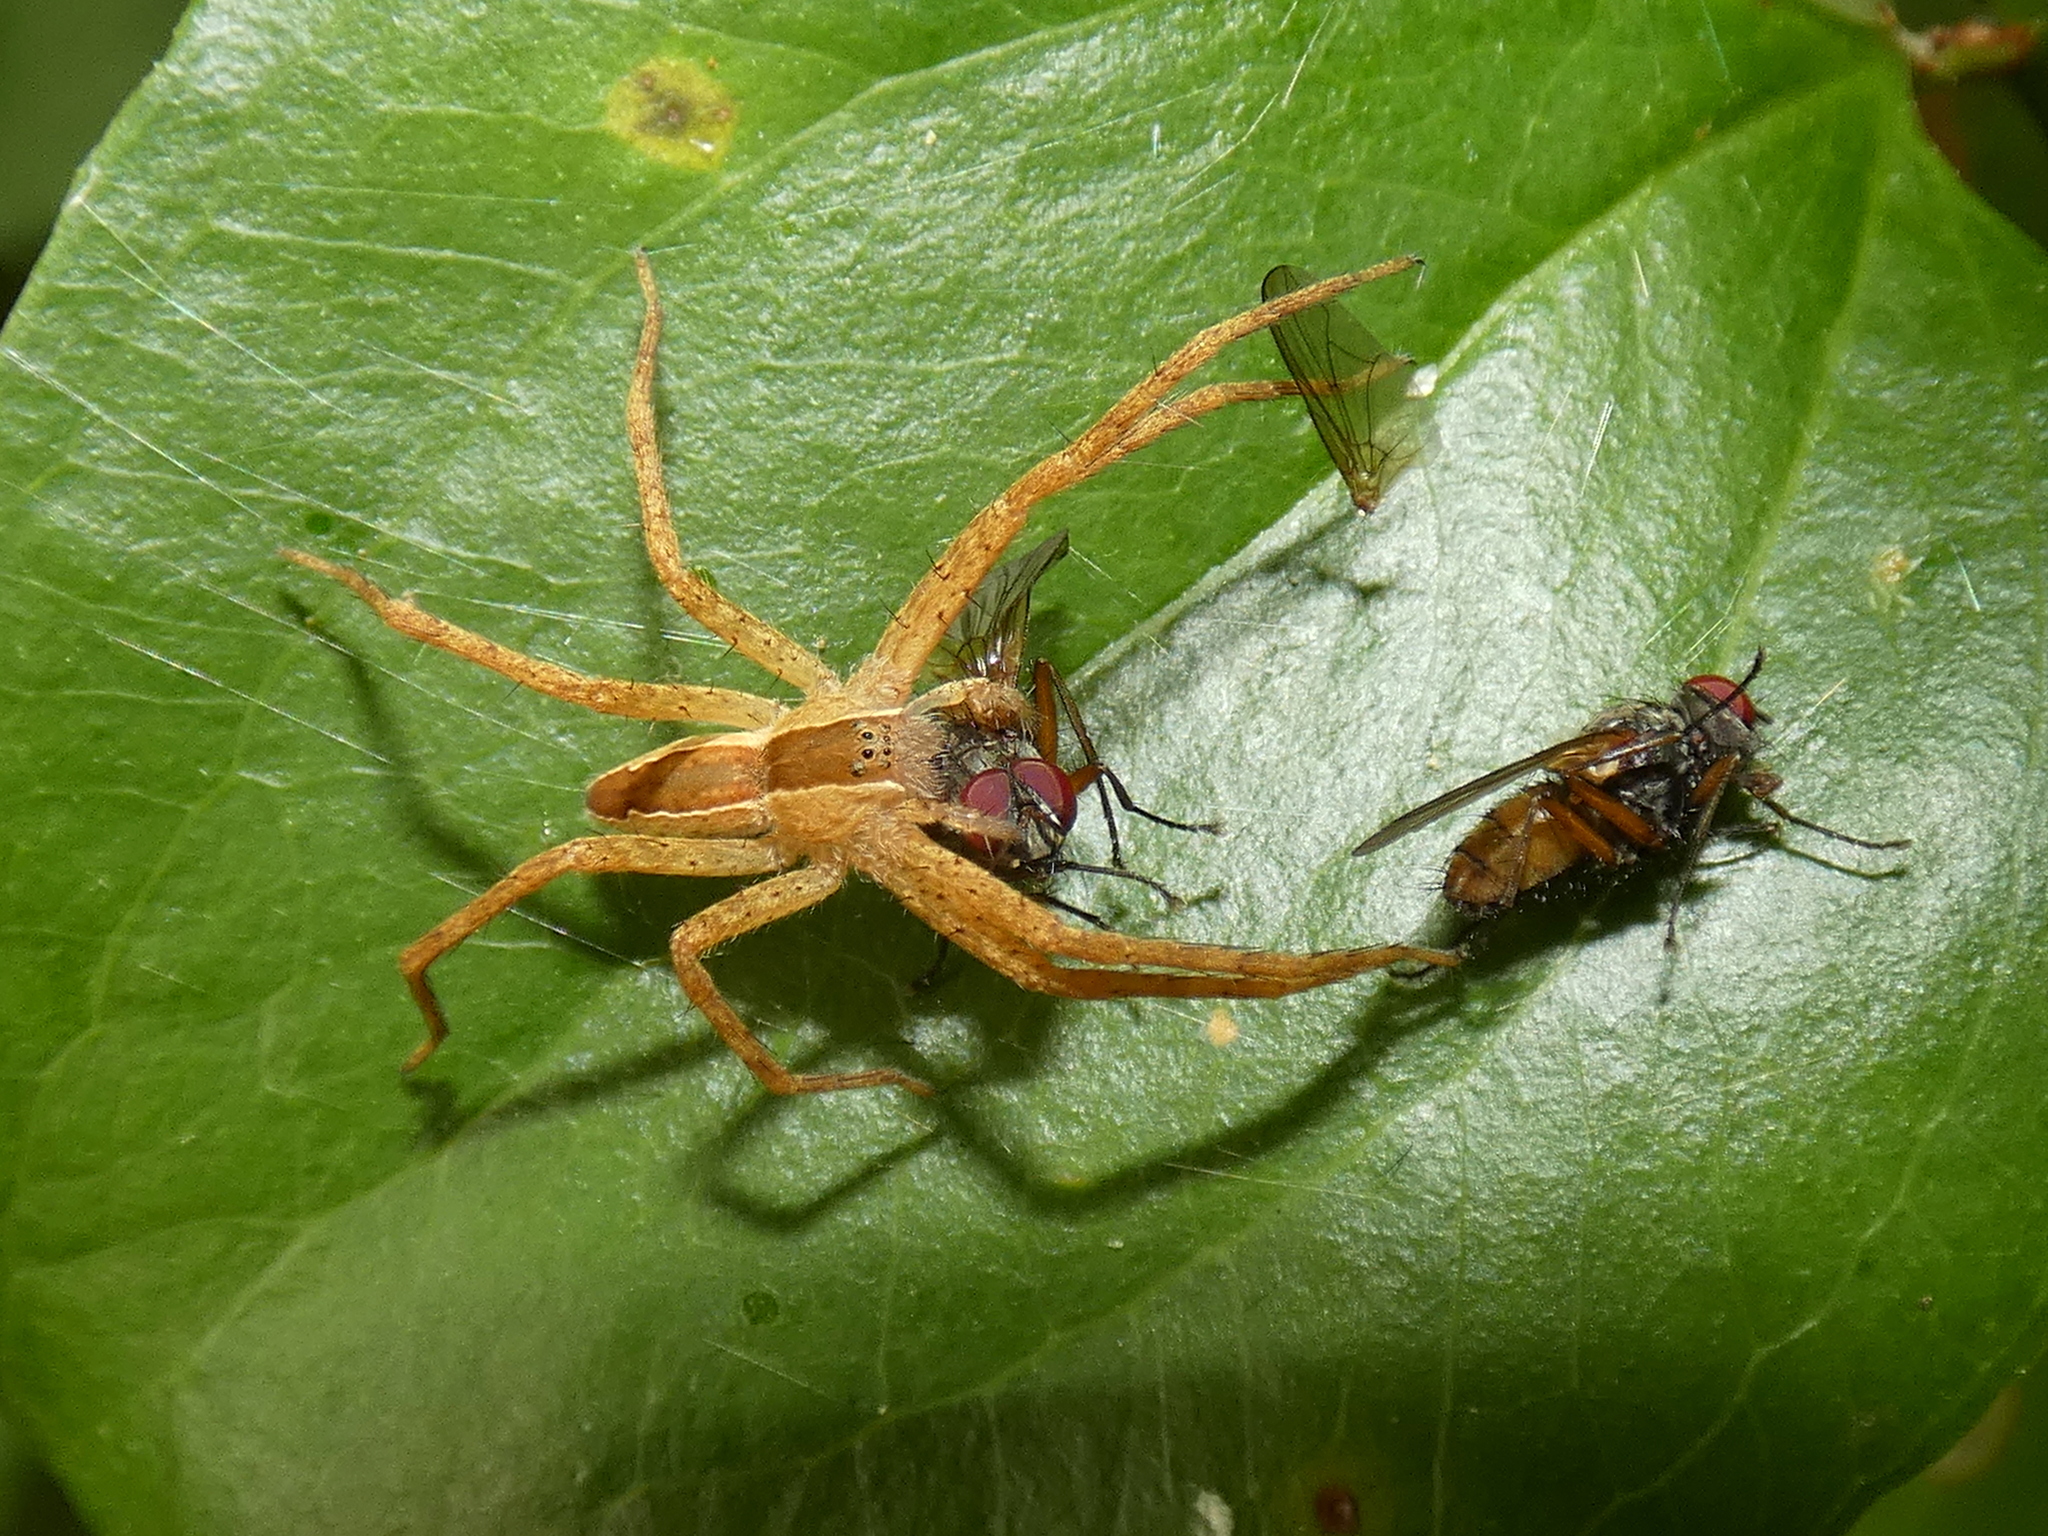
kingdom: Animalia
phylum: Arthropoda
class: Arachnida
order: Araneae
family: Pisauridae
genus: Pisaurina
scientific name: Pisaurina mira
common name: American nursery web spider
